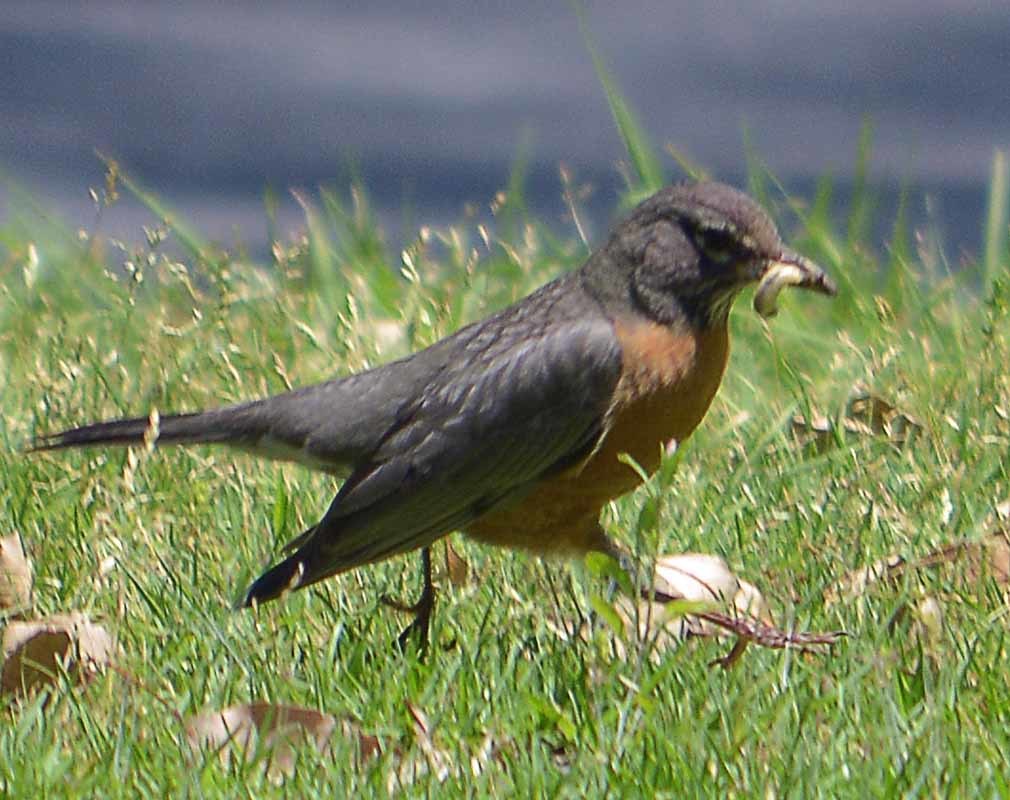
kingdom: Animalia
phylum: Chordata
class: Aves
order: Passeriformes
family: Turdidae
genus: Turdus
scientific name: Turdus migratorius
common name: American robin
